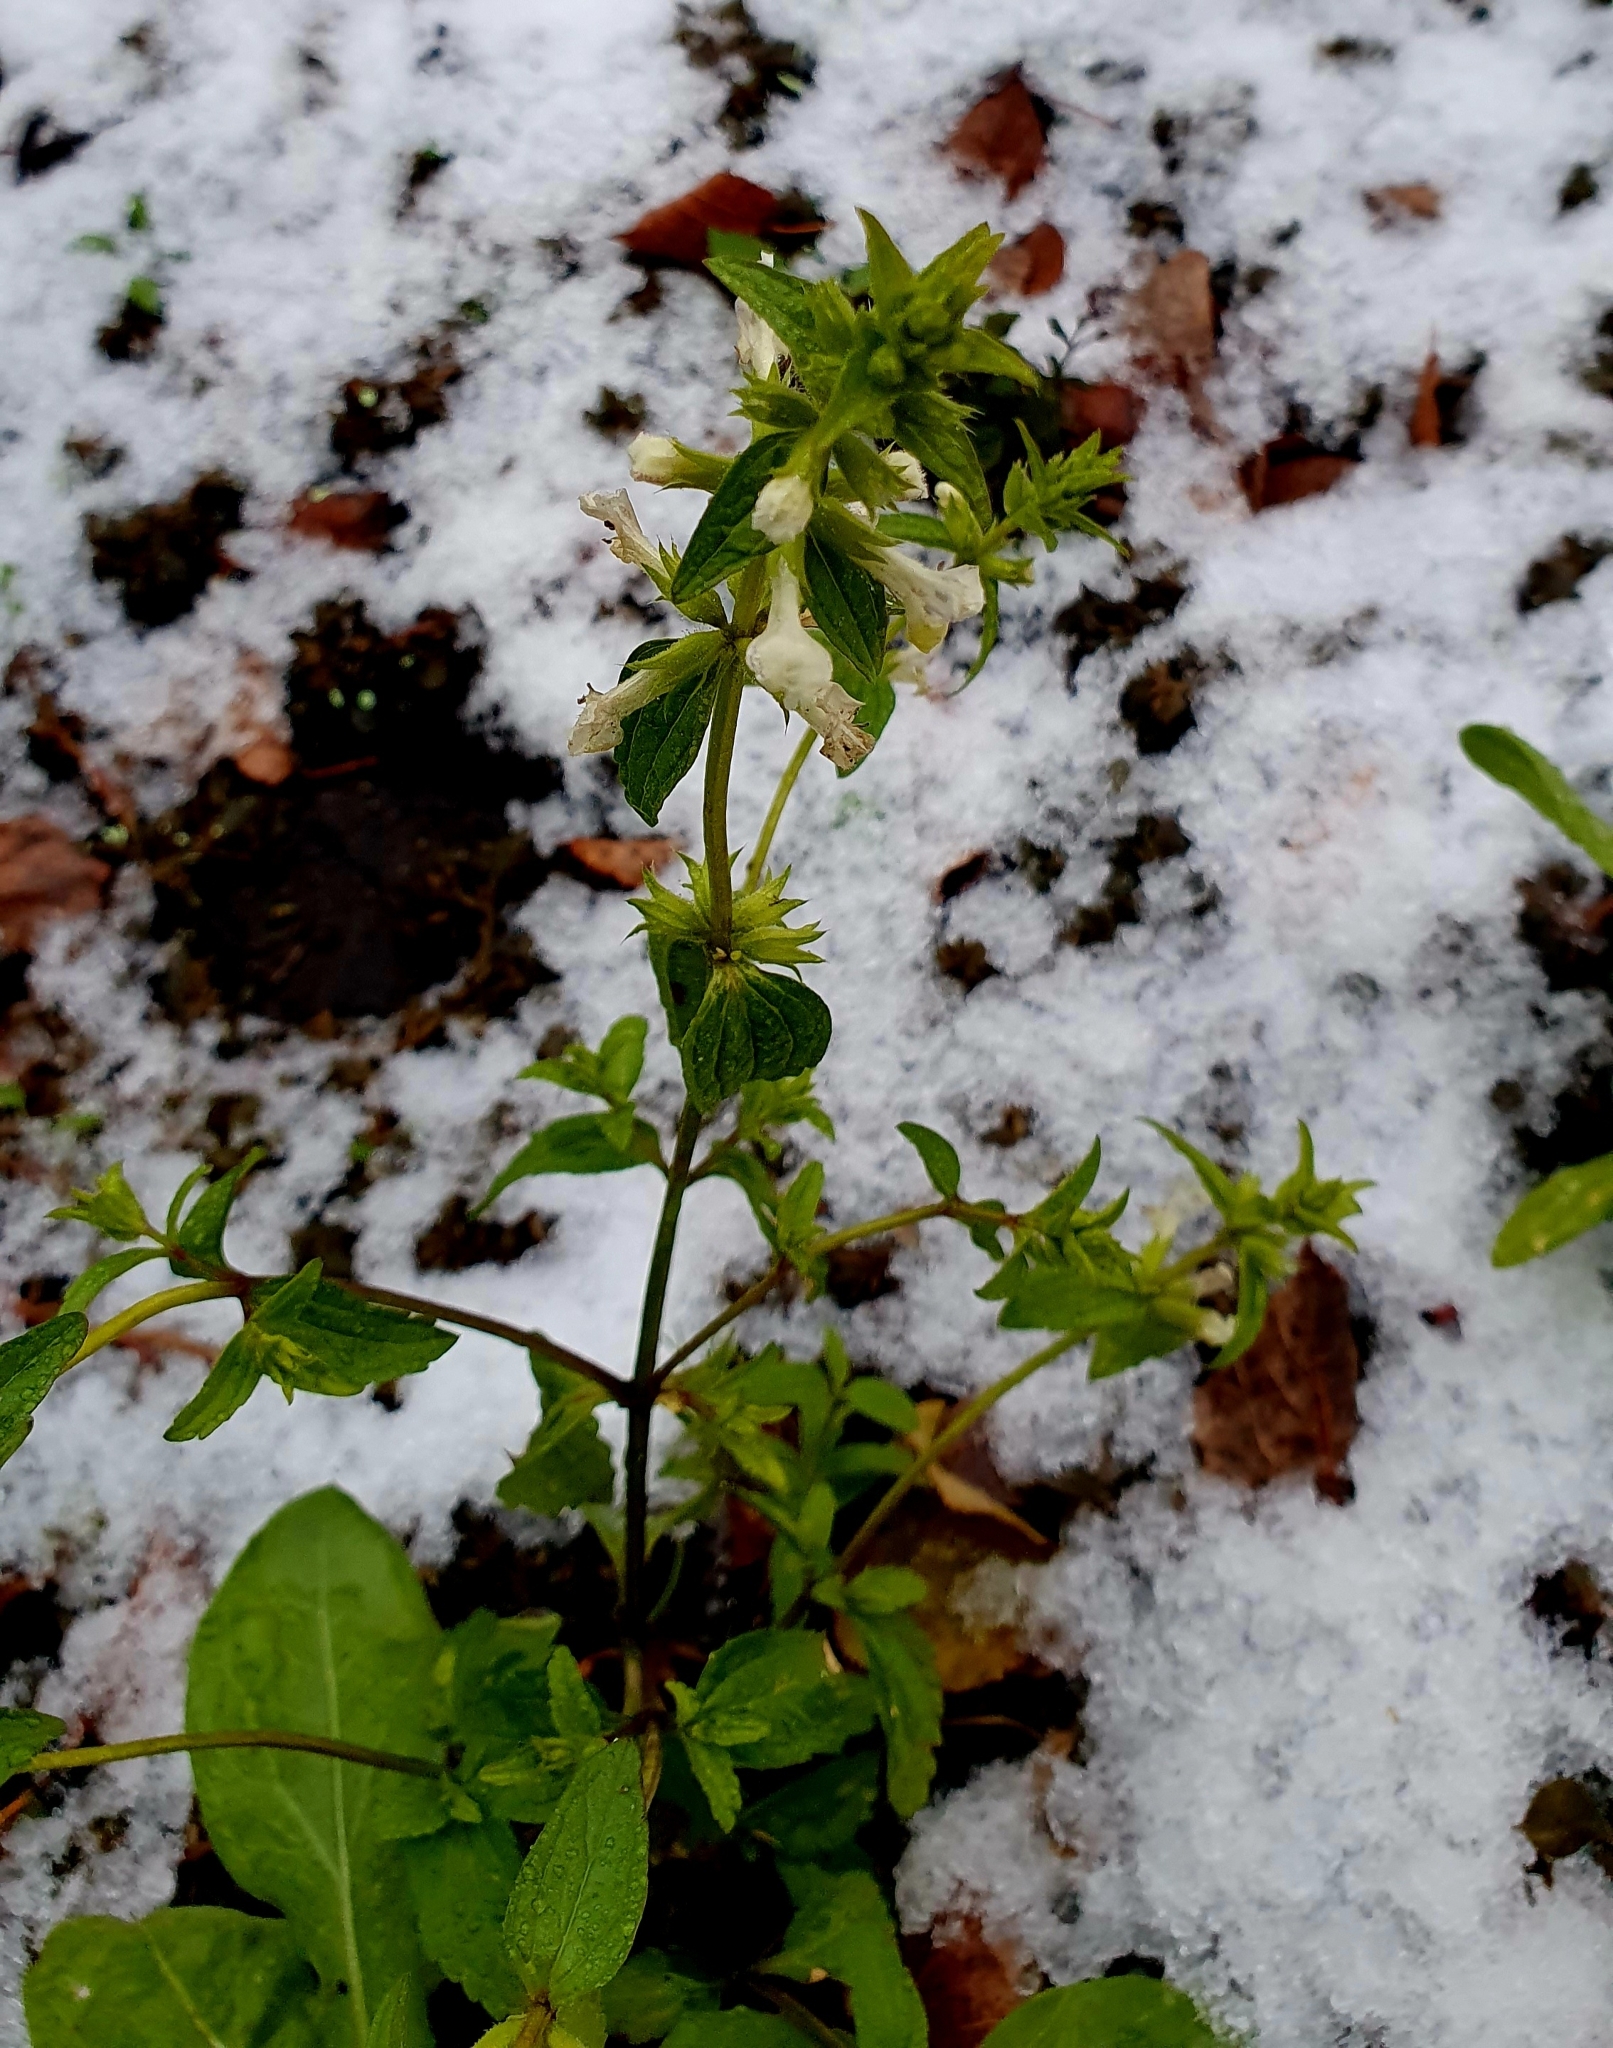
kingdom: Plantae
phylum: Tracheophyta
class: Magnoliopsida
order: Lamiales
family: Lamiaceae
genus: Stachys
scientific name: Stachys annua
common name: Annual yellow-woundwort
